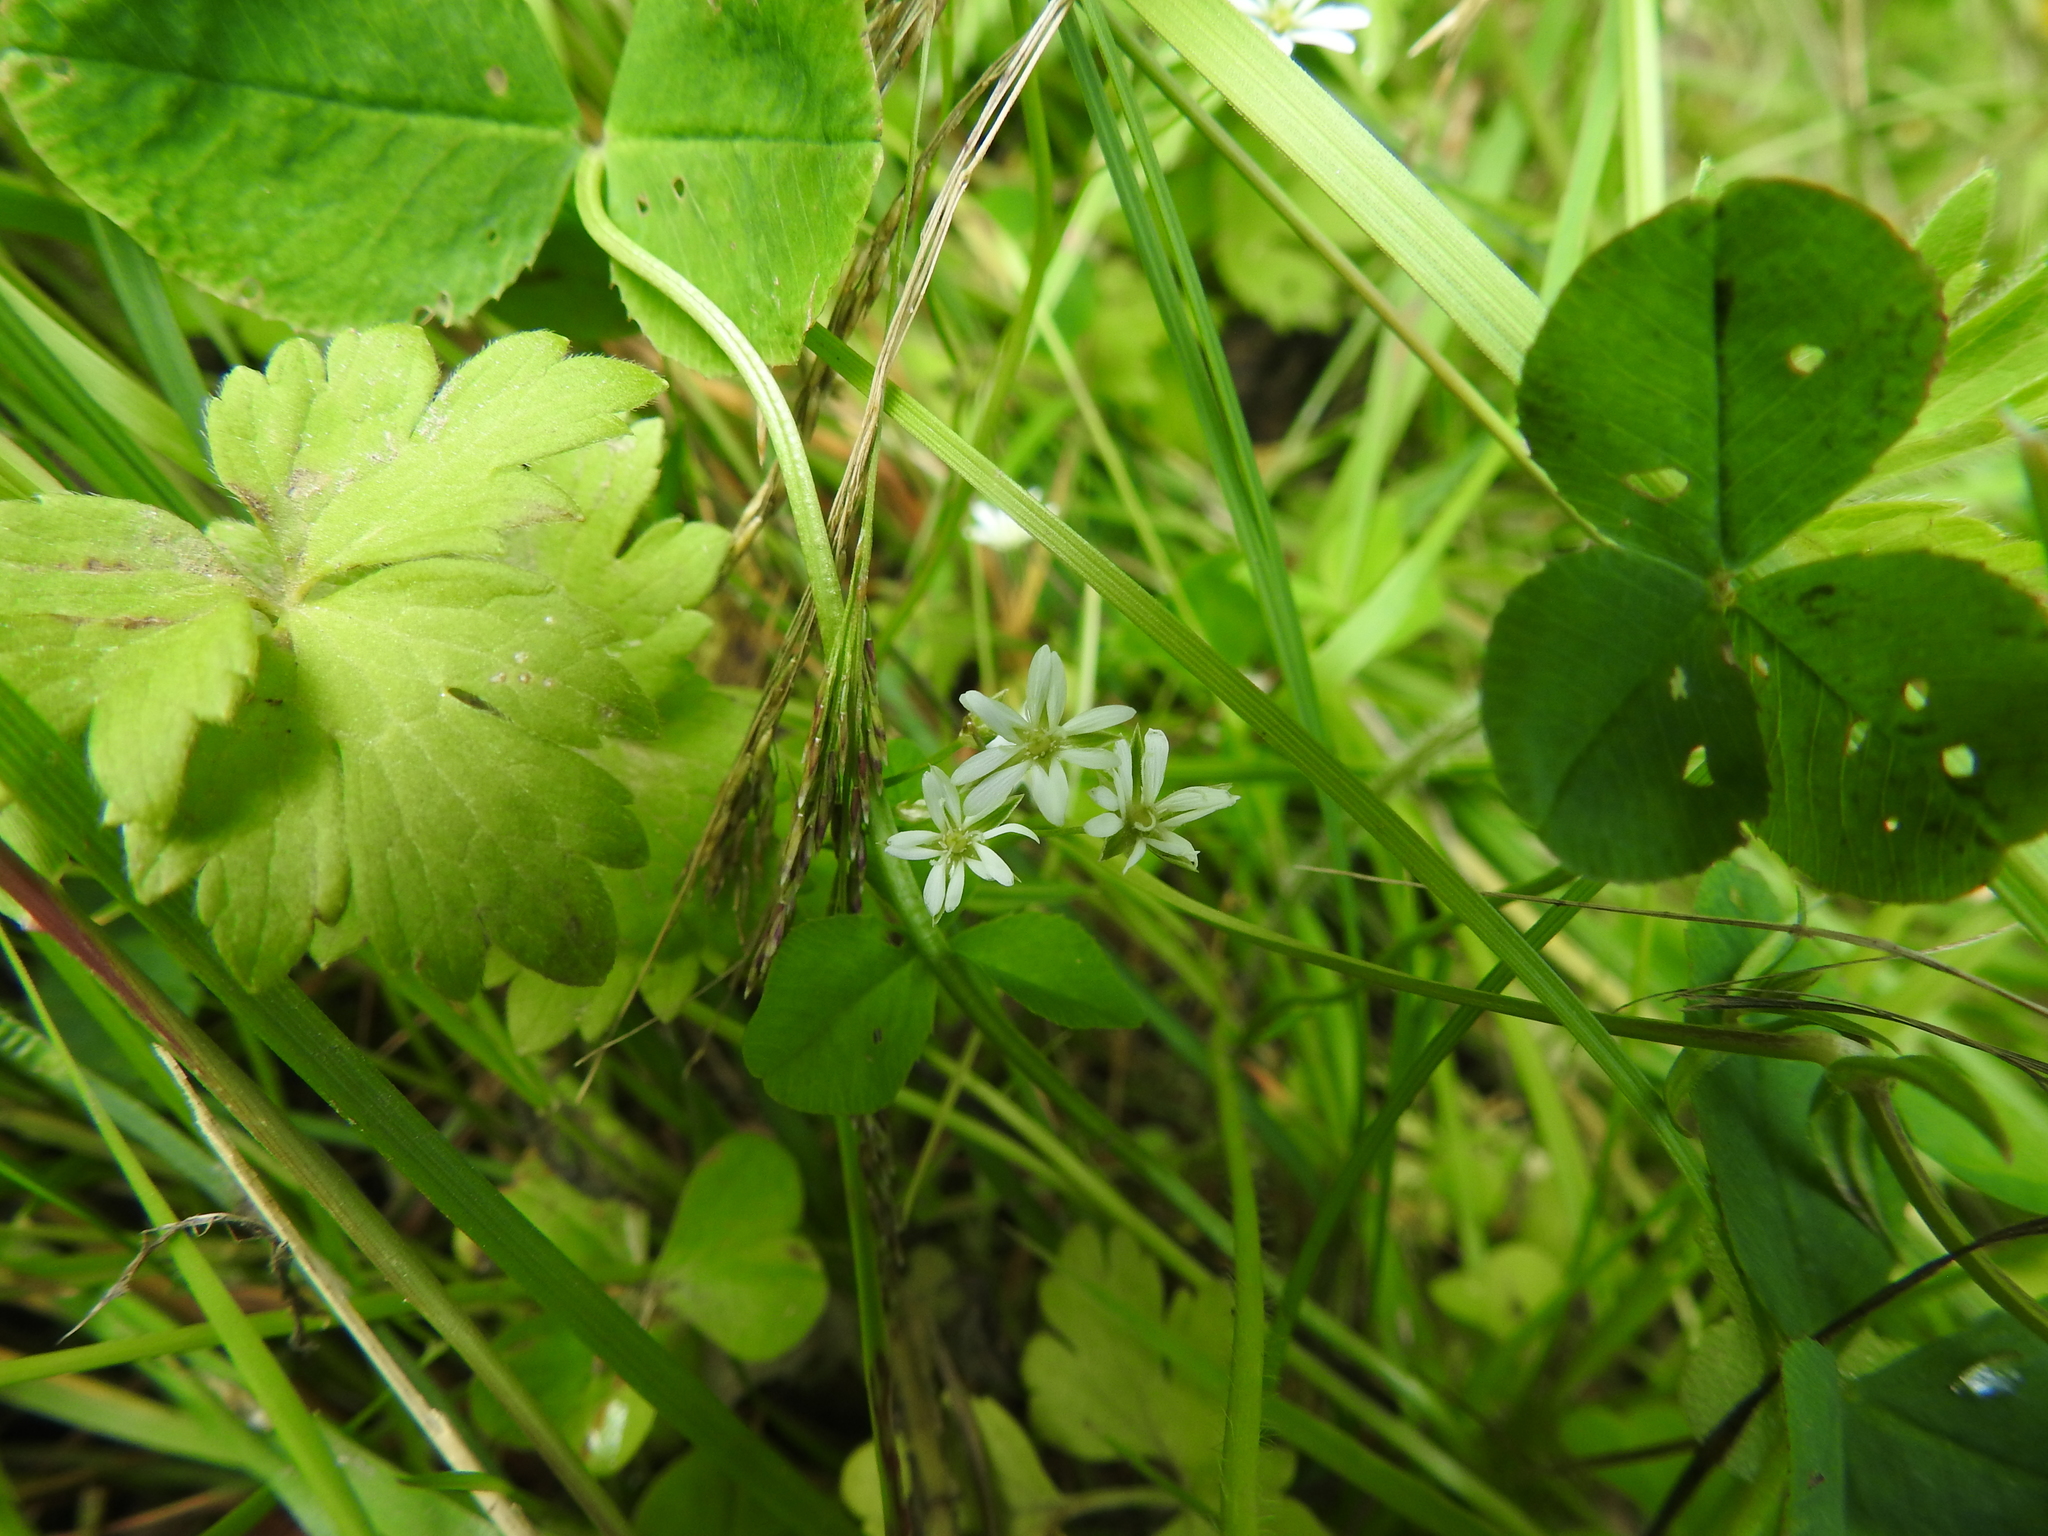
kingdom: Plantae
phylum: Tracheophyta
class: Magnoliopsida
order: Caryophyllales
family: Caryophyllaceae
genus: Stellaria
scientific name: Stellaria graminea
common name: Grass-like starwort
